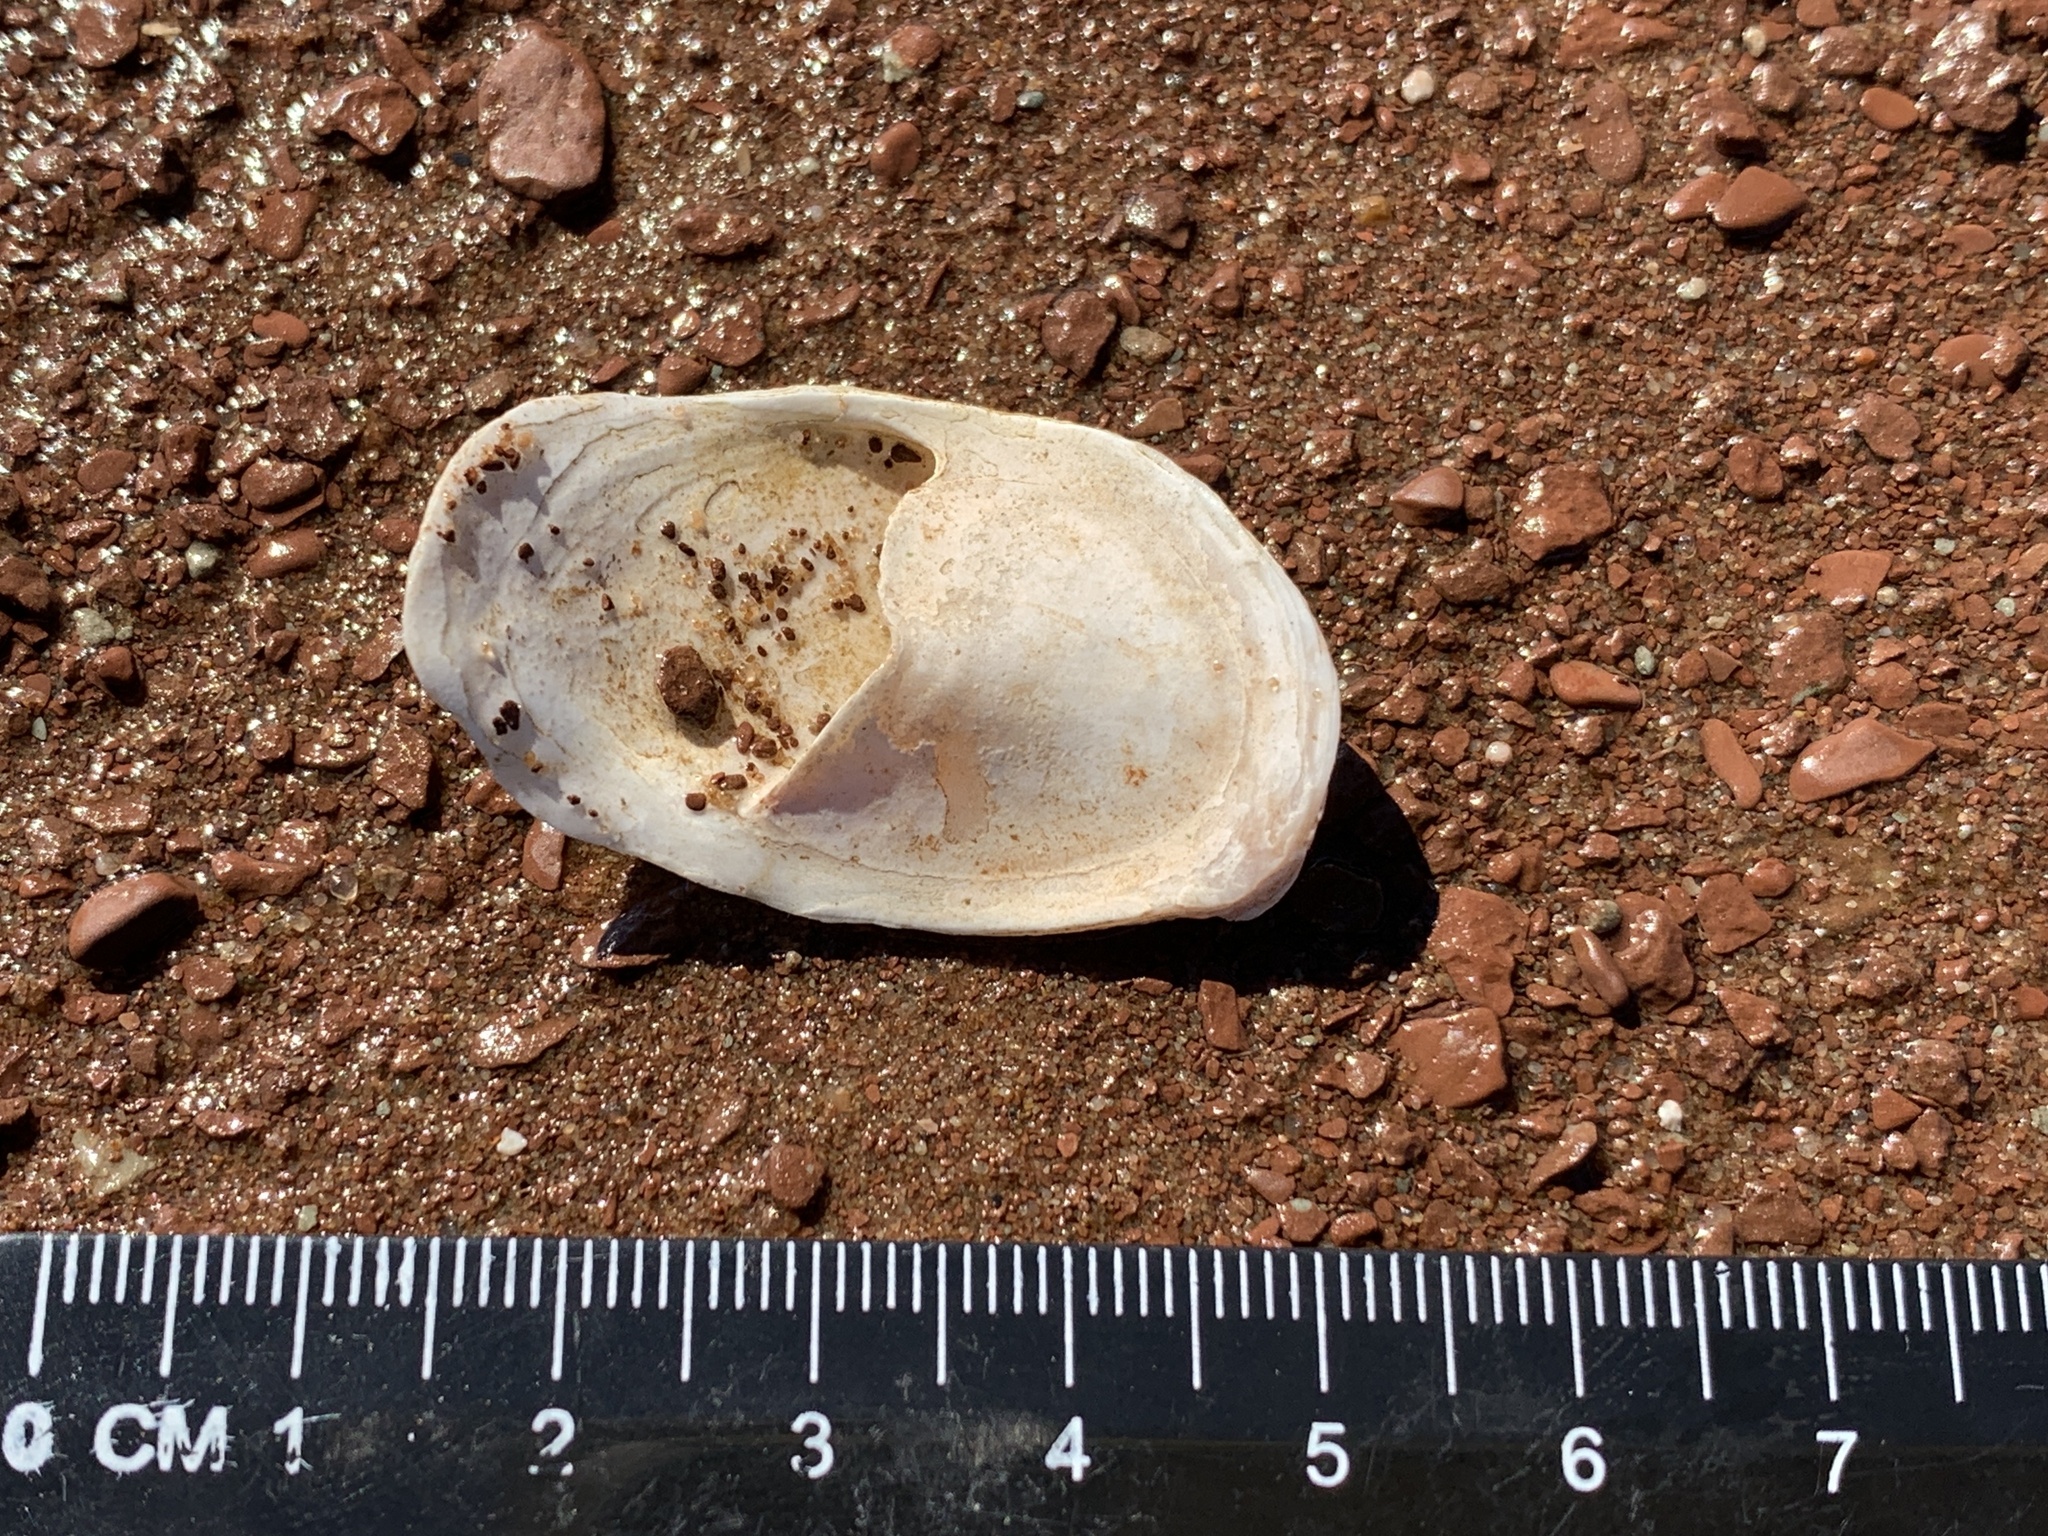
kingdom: Animalia
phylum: Mollusca
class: Gastropoda
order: Littorinimorpha
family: Calyptraeidae
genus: Crepidula
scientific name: Crepidula plana
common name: Eastern white slippersnail
